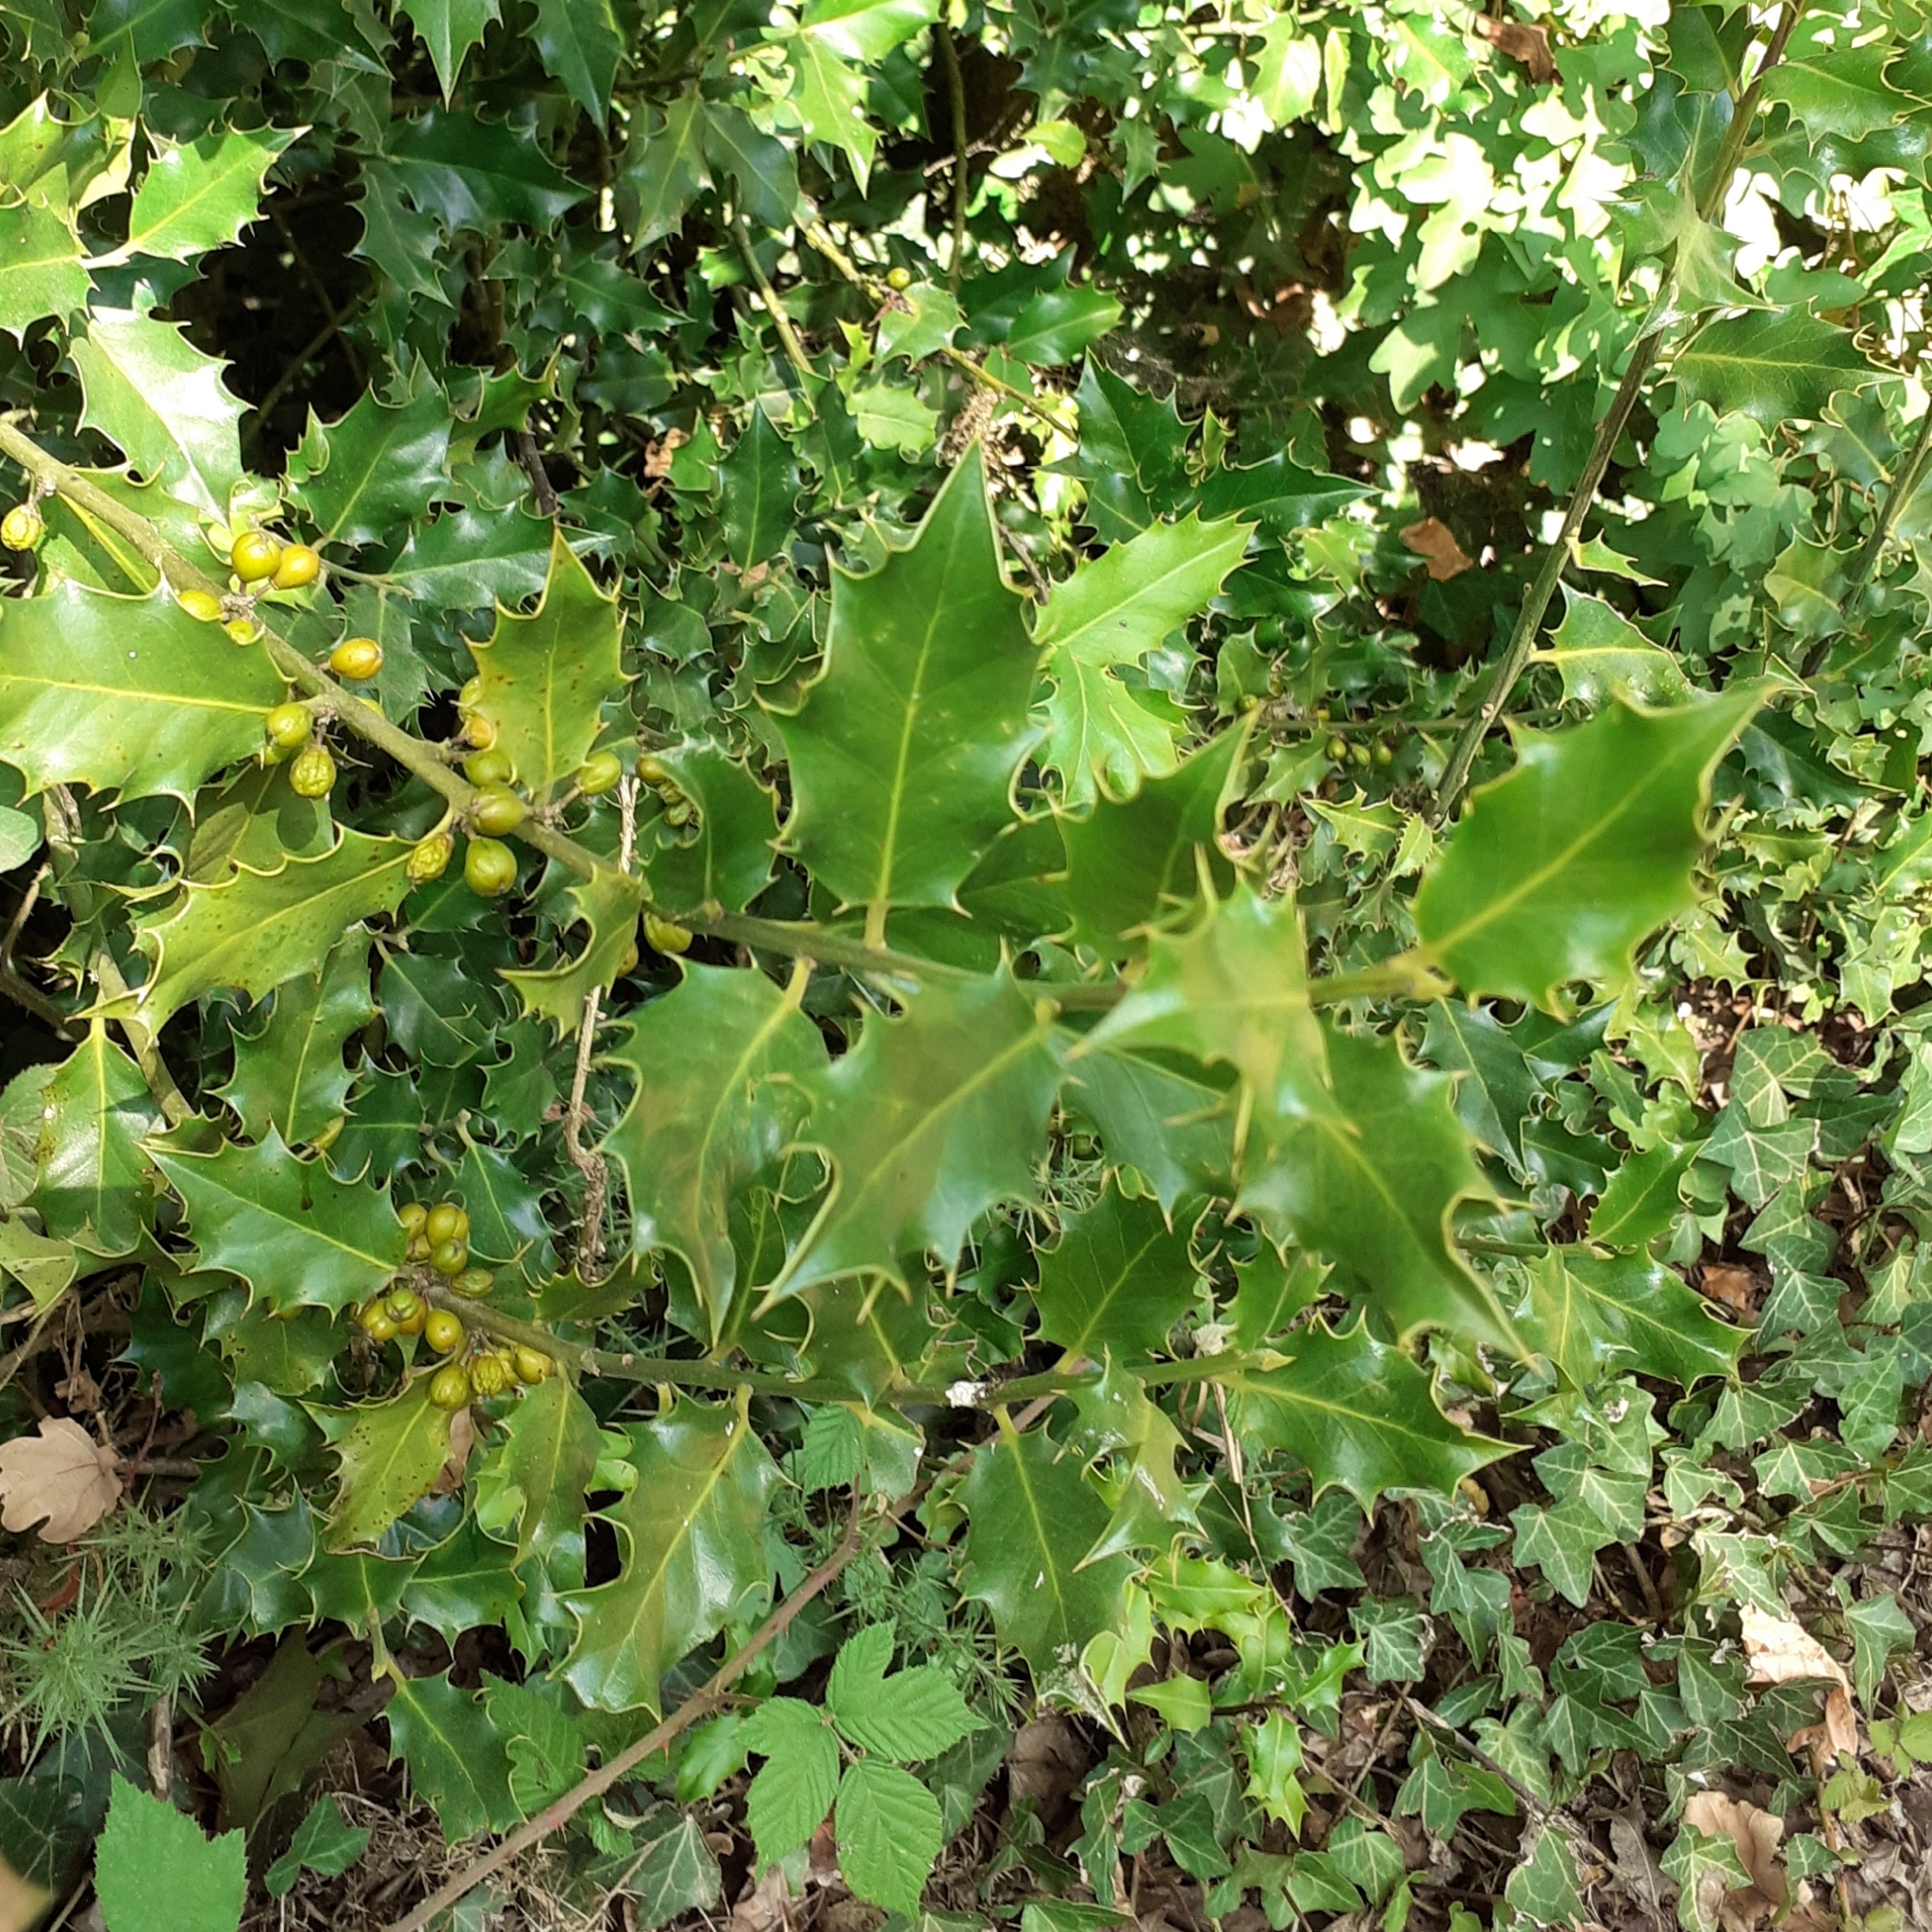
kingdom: Plantae
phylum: Tracheophyta
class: Magnoliopsida
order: Aquifoliales
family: Aquifoliaceae
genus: Ilex
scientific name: Ilex aquifolium
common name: English holly
